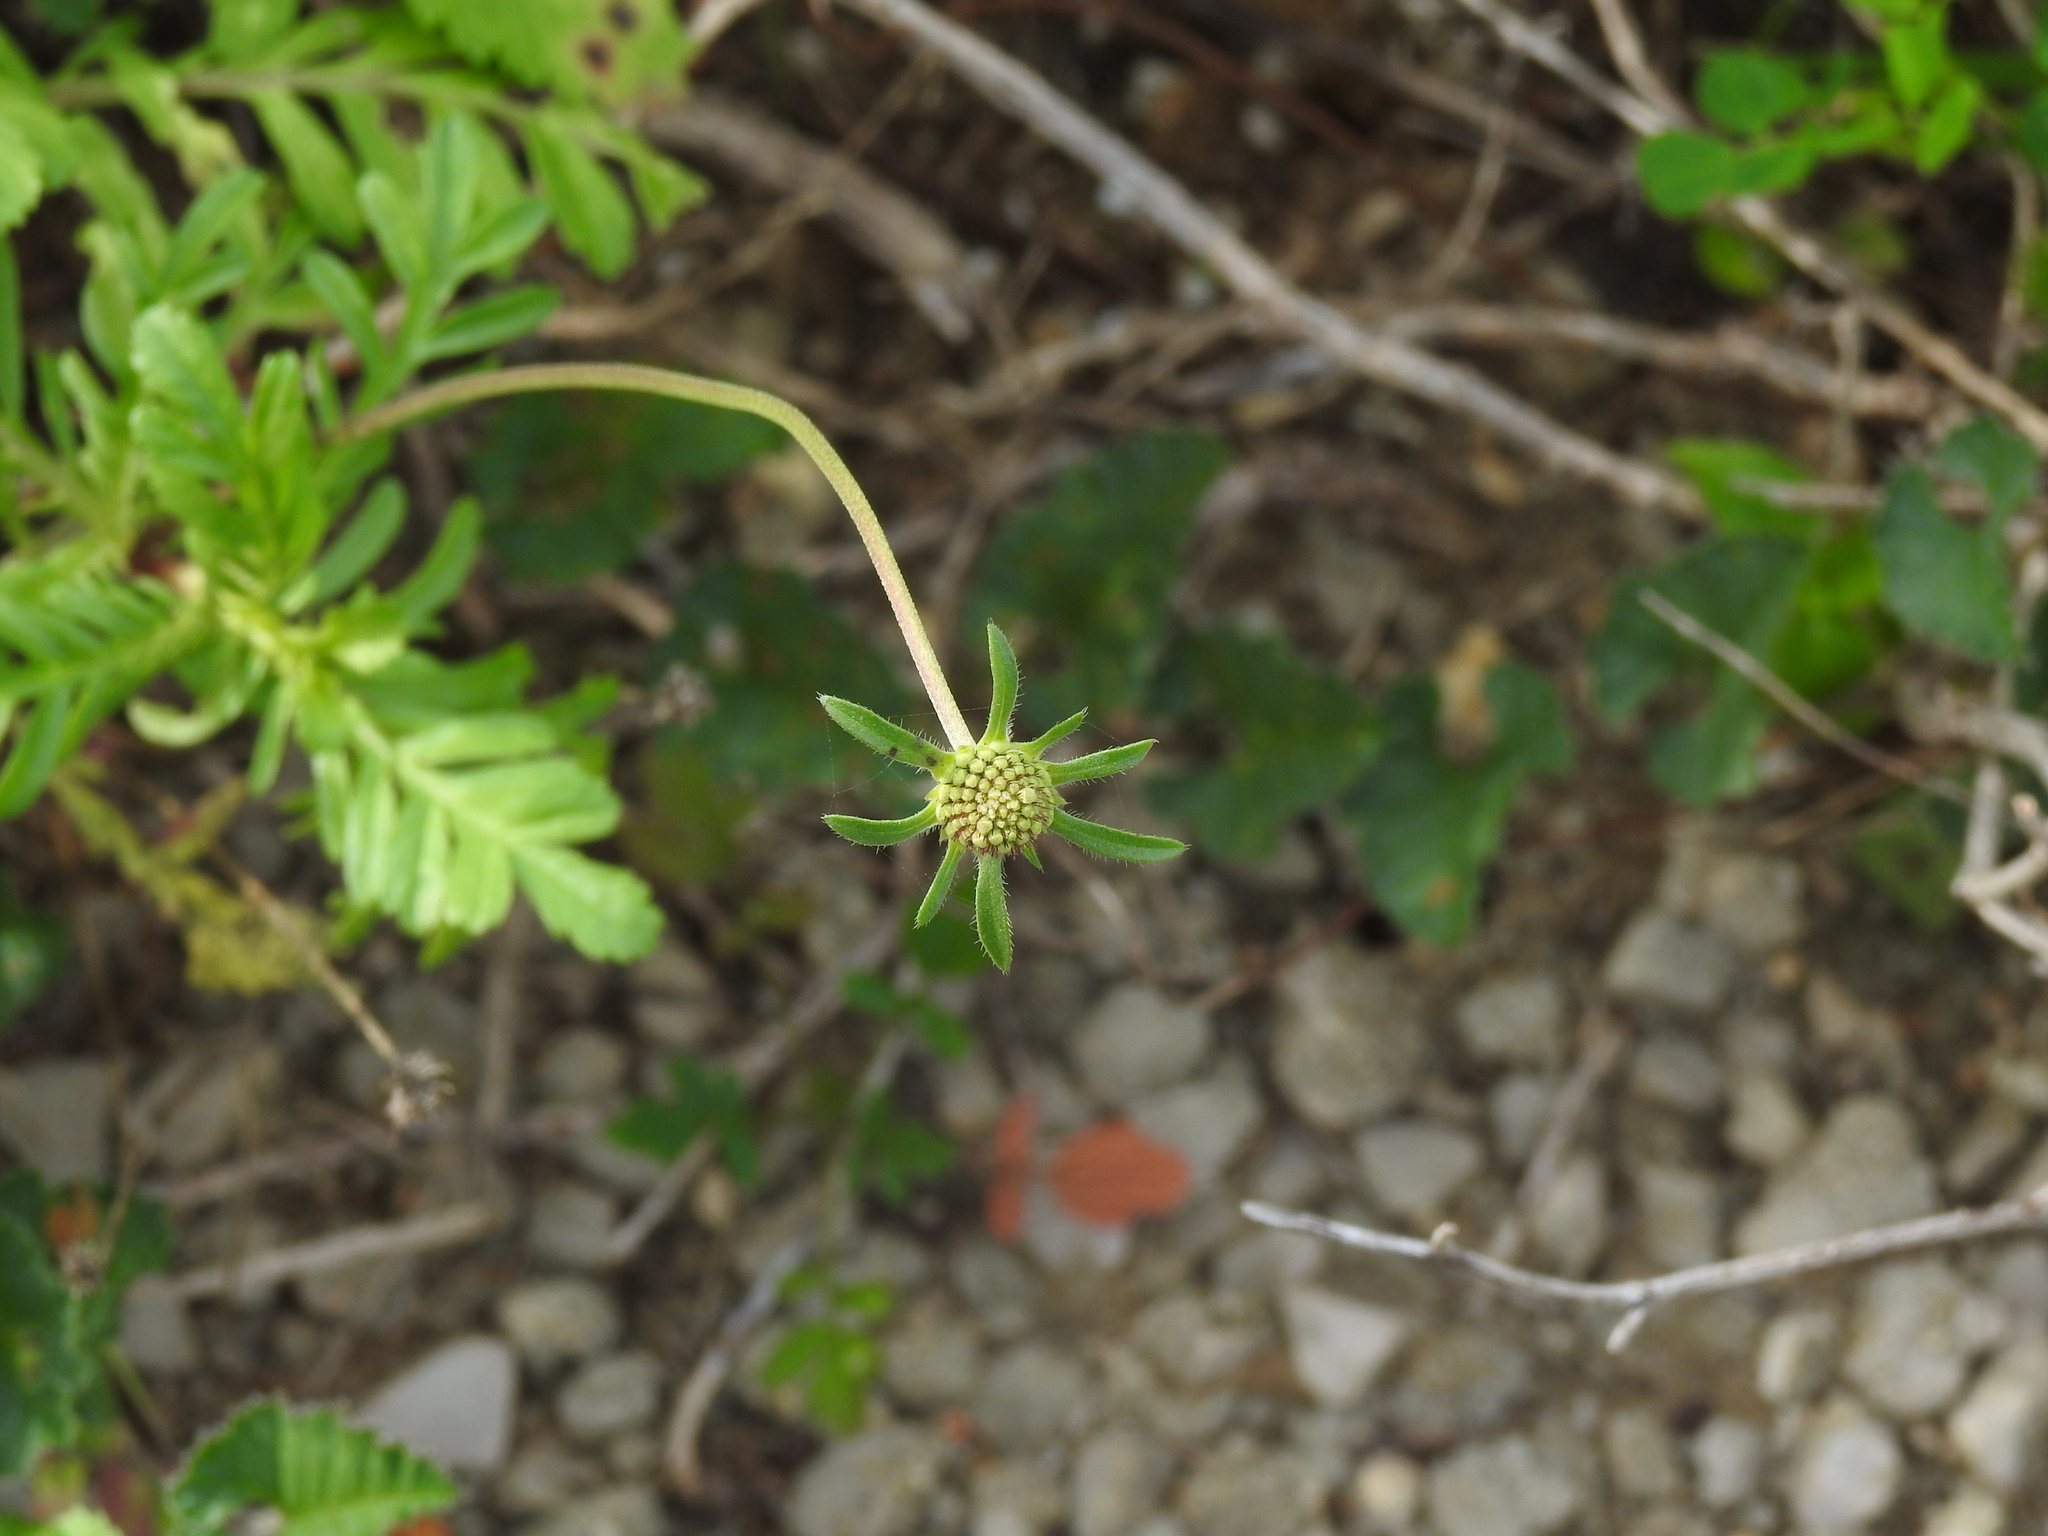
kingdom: Plantae
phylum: Tracheophyta
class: Magnoliopsida
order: Dipsacales
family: Caprifoliaceae
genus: Sixalix
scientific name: Sixalix atropurpurea
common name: Sweet scabious
